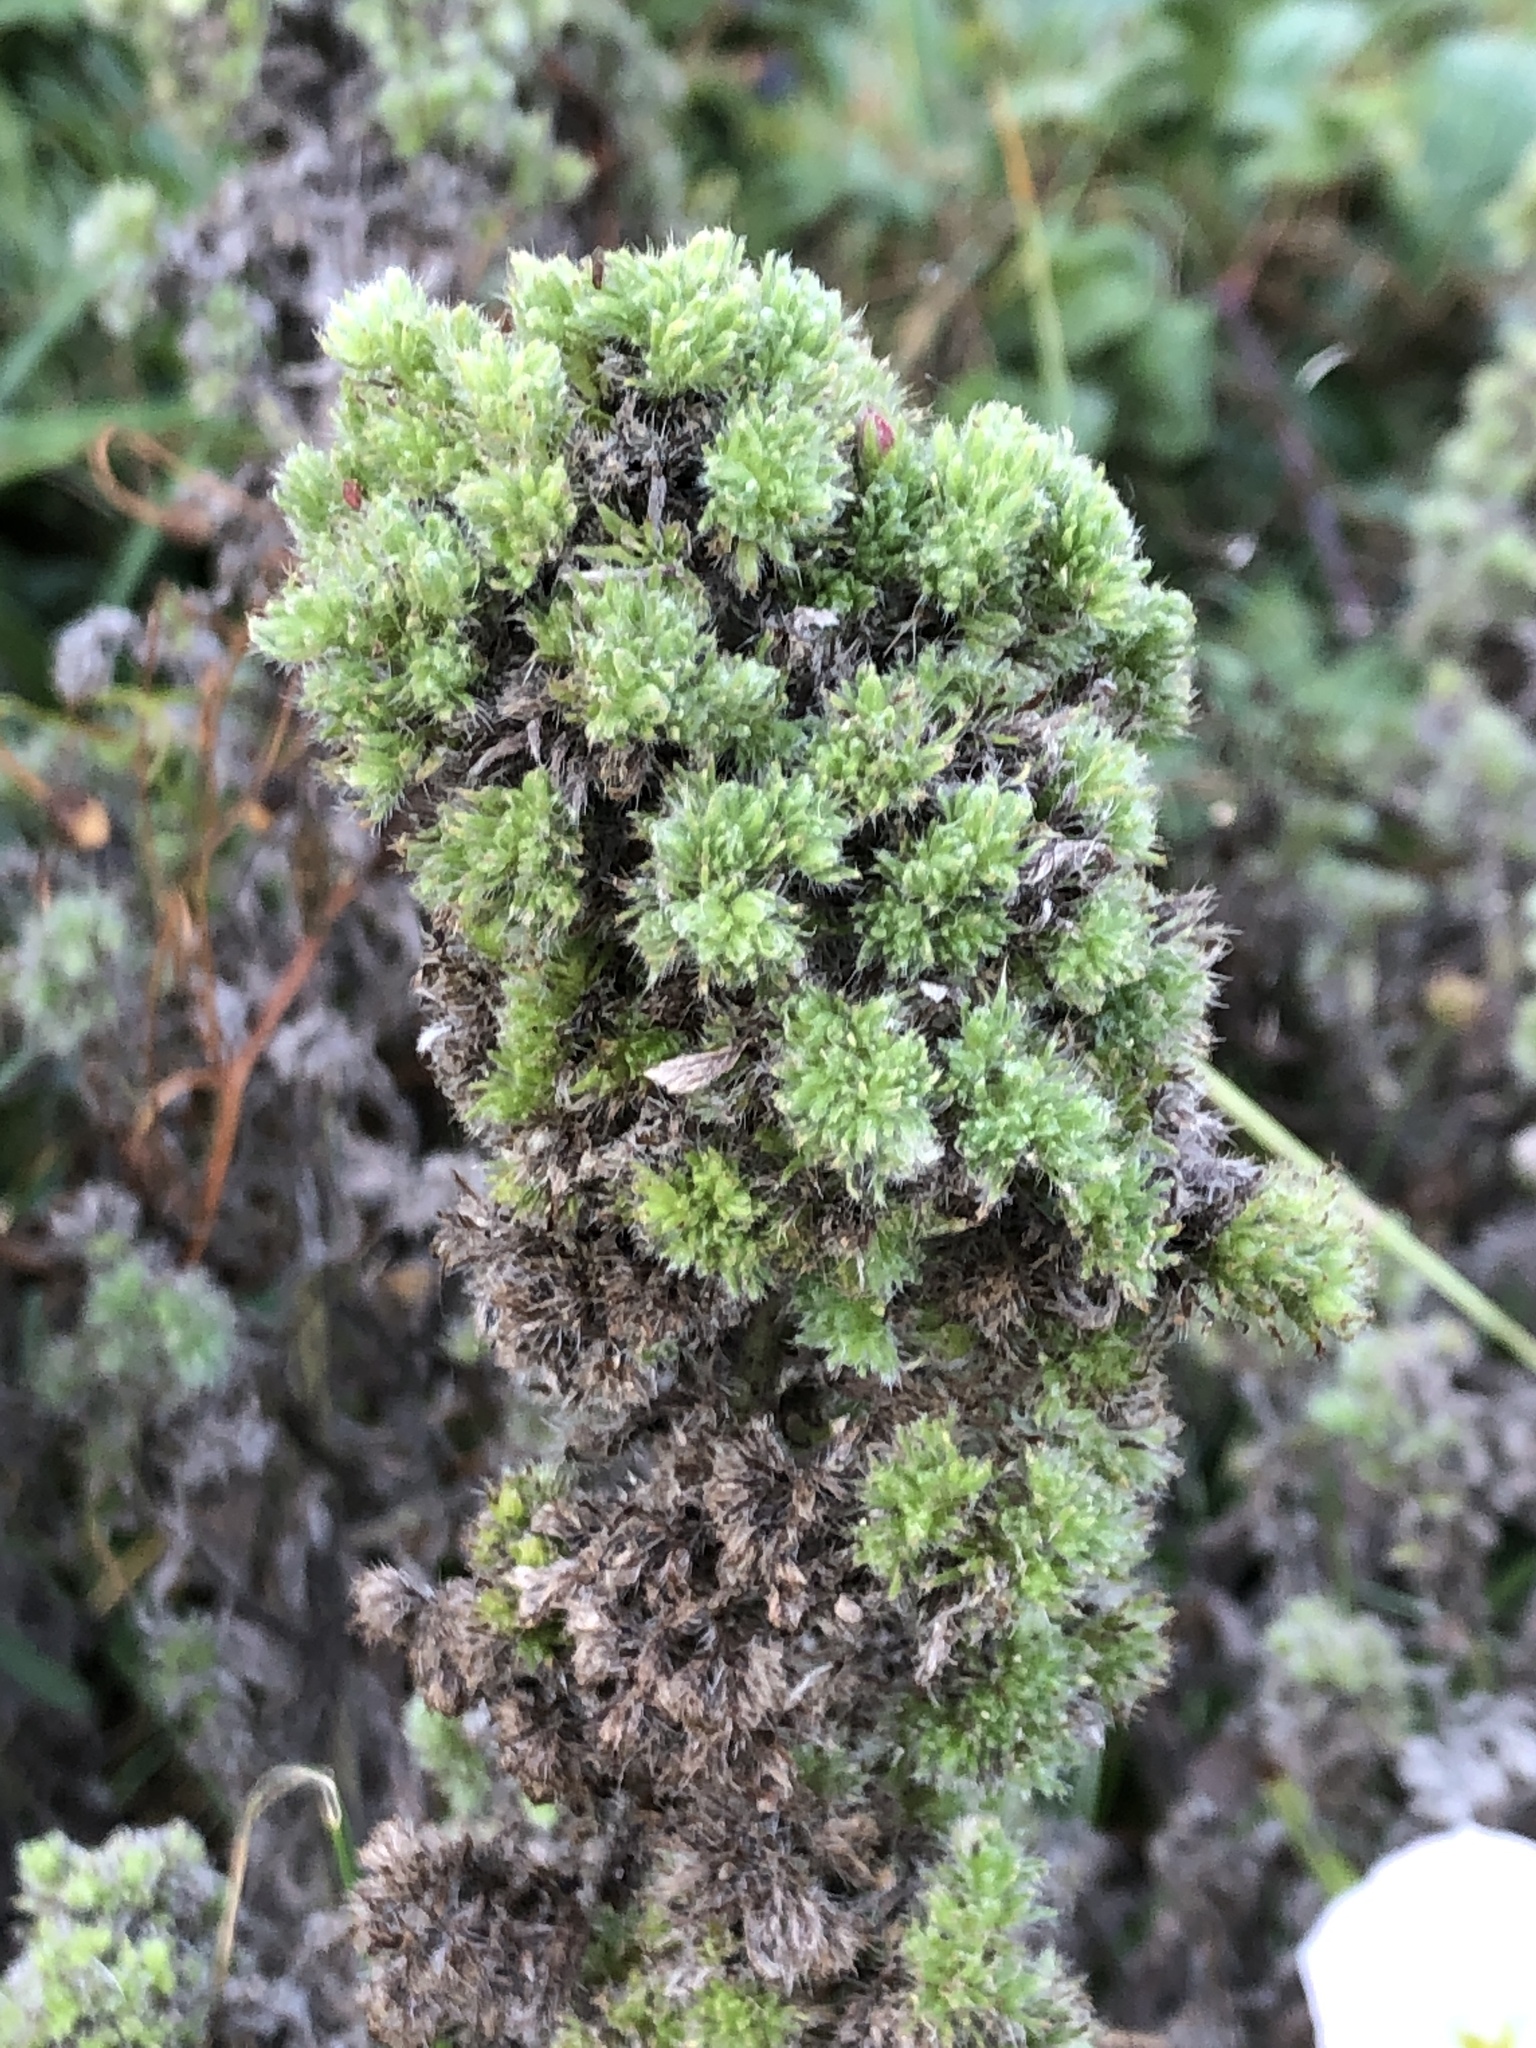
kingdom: Plantae
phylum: Tracheophyta
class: Magnoliopsida
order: Boraginales
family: Boraginaceae
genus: Echium
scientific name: Echium vulgare
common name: Common viper's bugloss
